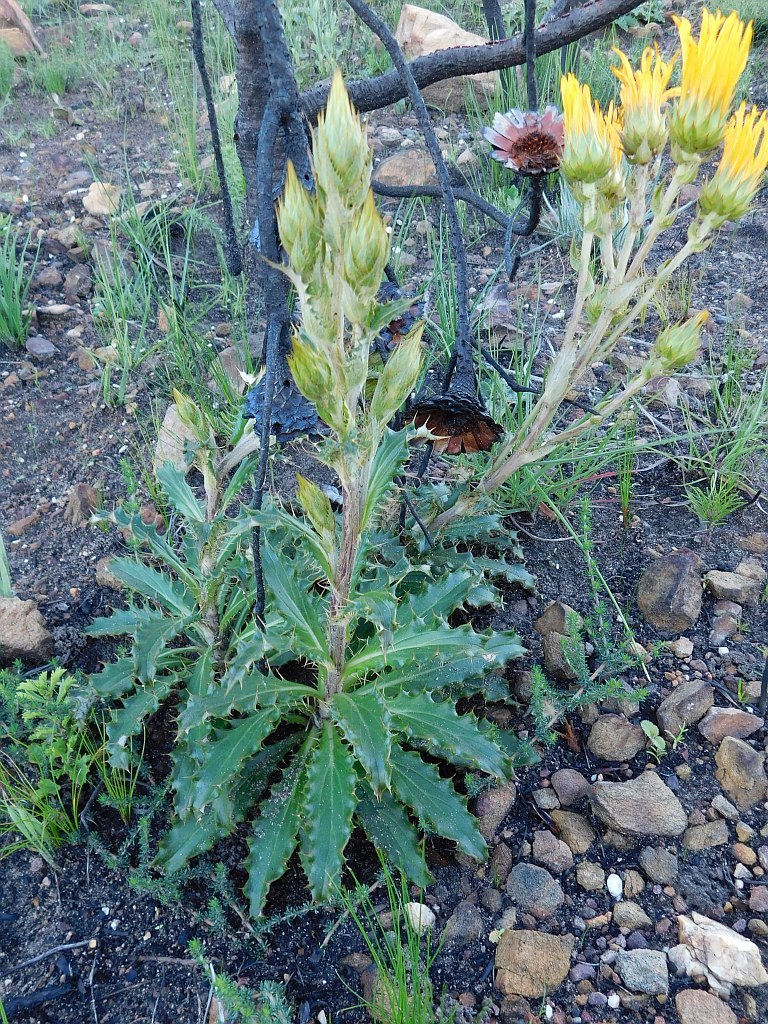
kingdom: Plantae
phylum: Tracheophyta
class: Magnoliopsida
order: Asterales
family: Asteraceae
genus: Berkheya
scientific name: Berkheya armata
